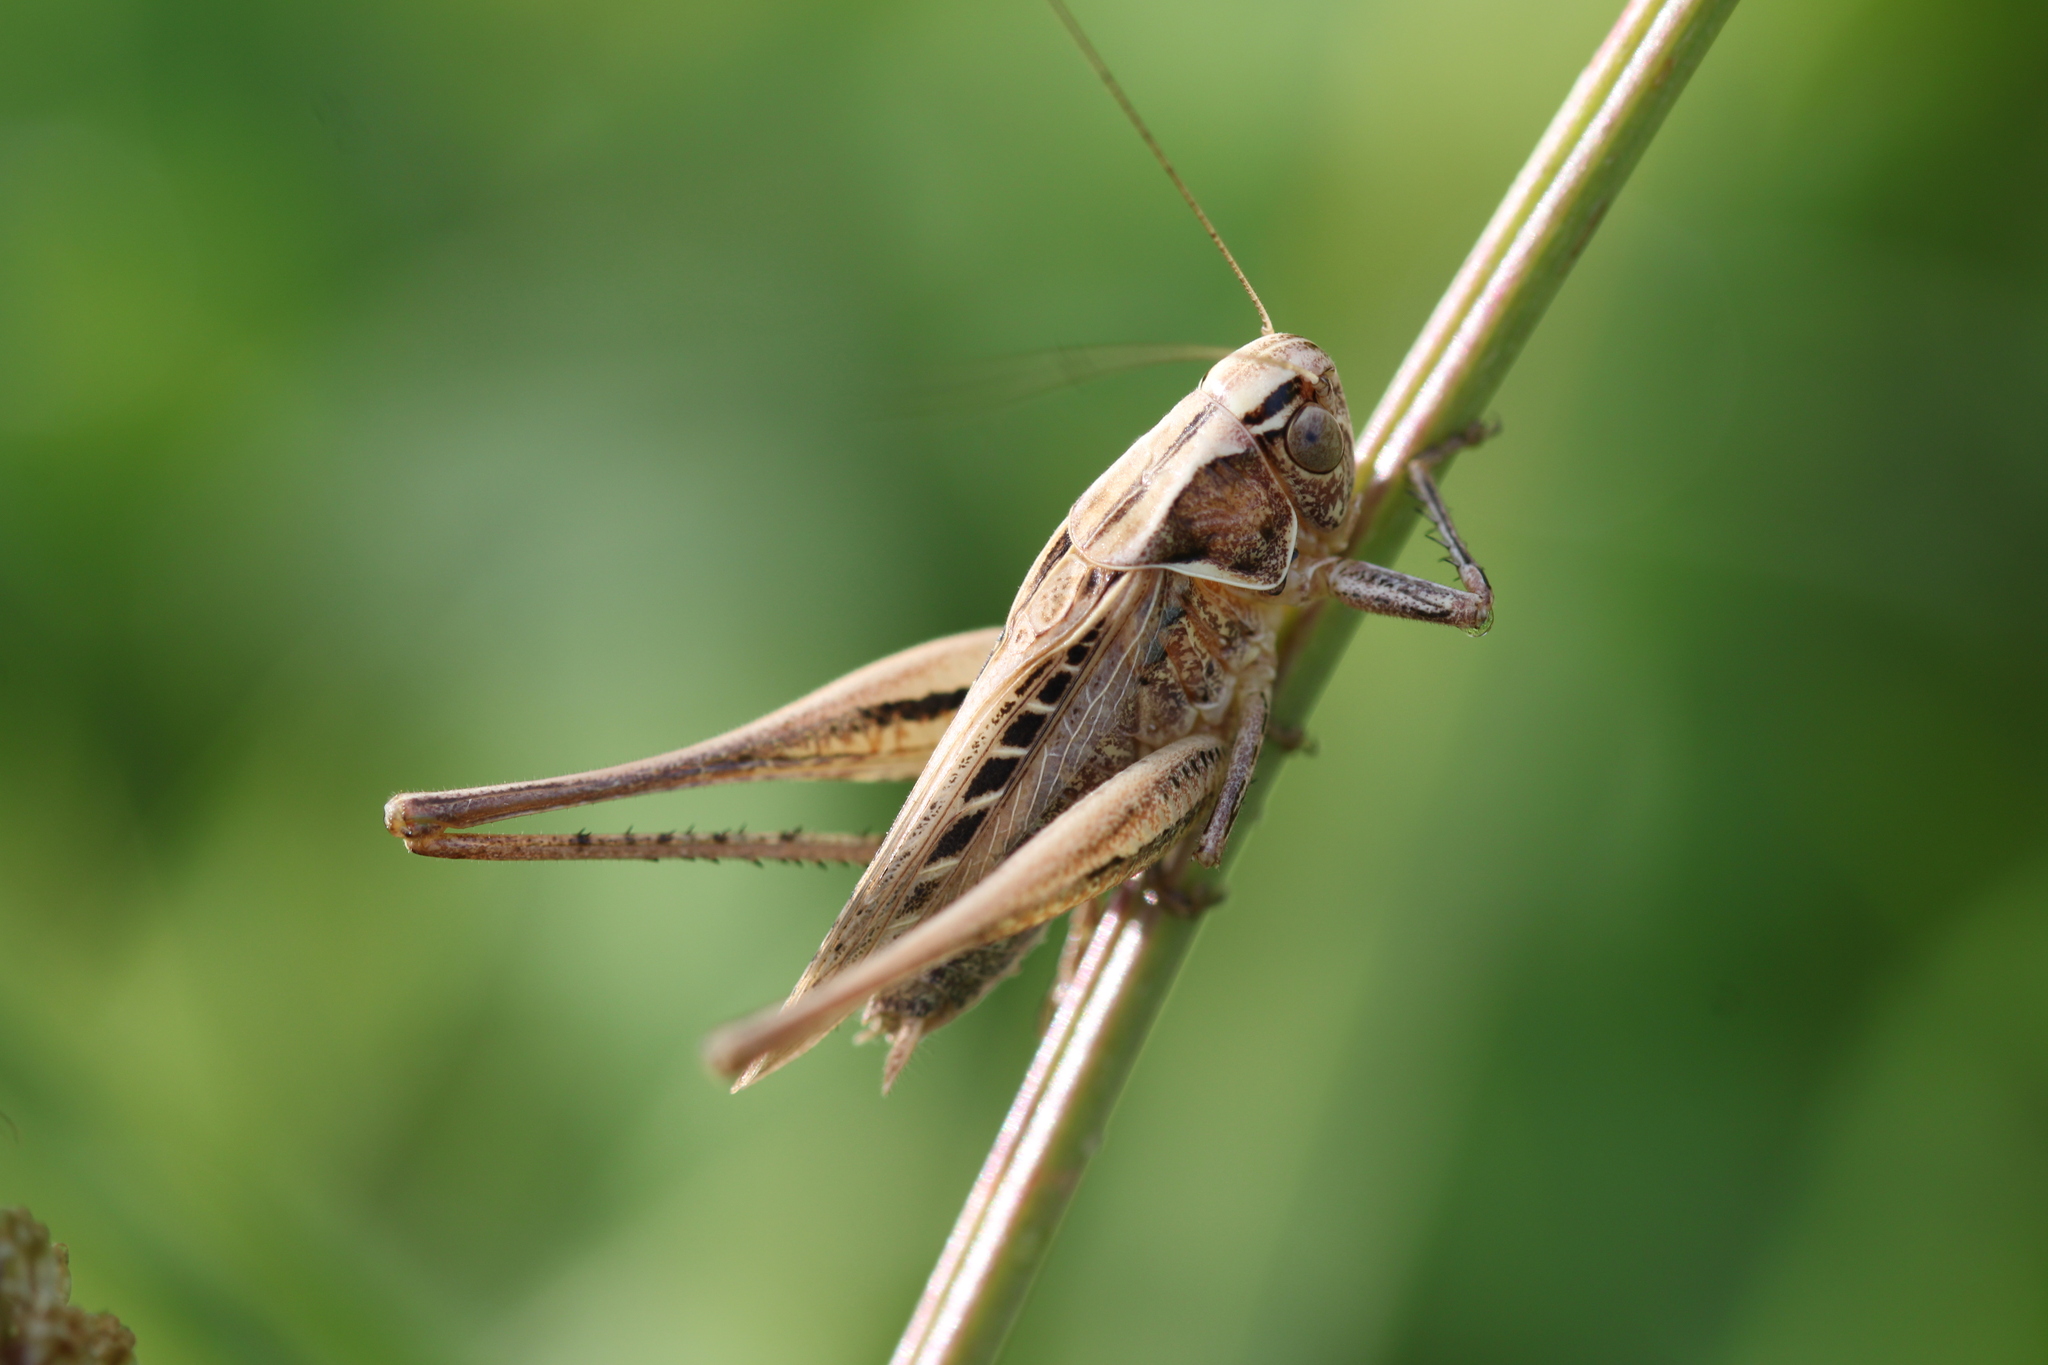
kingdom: Animalia
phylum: Arthropoda
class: Insecta
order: Orthoptera
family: Tettigoniidae
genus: Tessellana
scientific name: Tessellana tessellata
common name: Grasshopper
